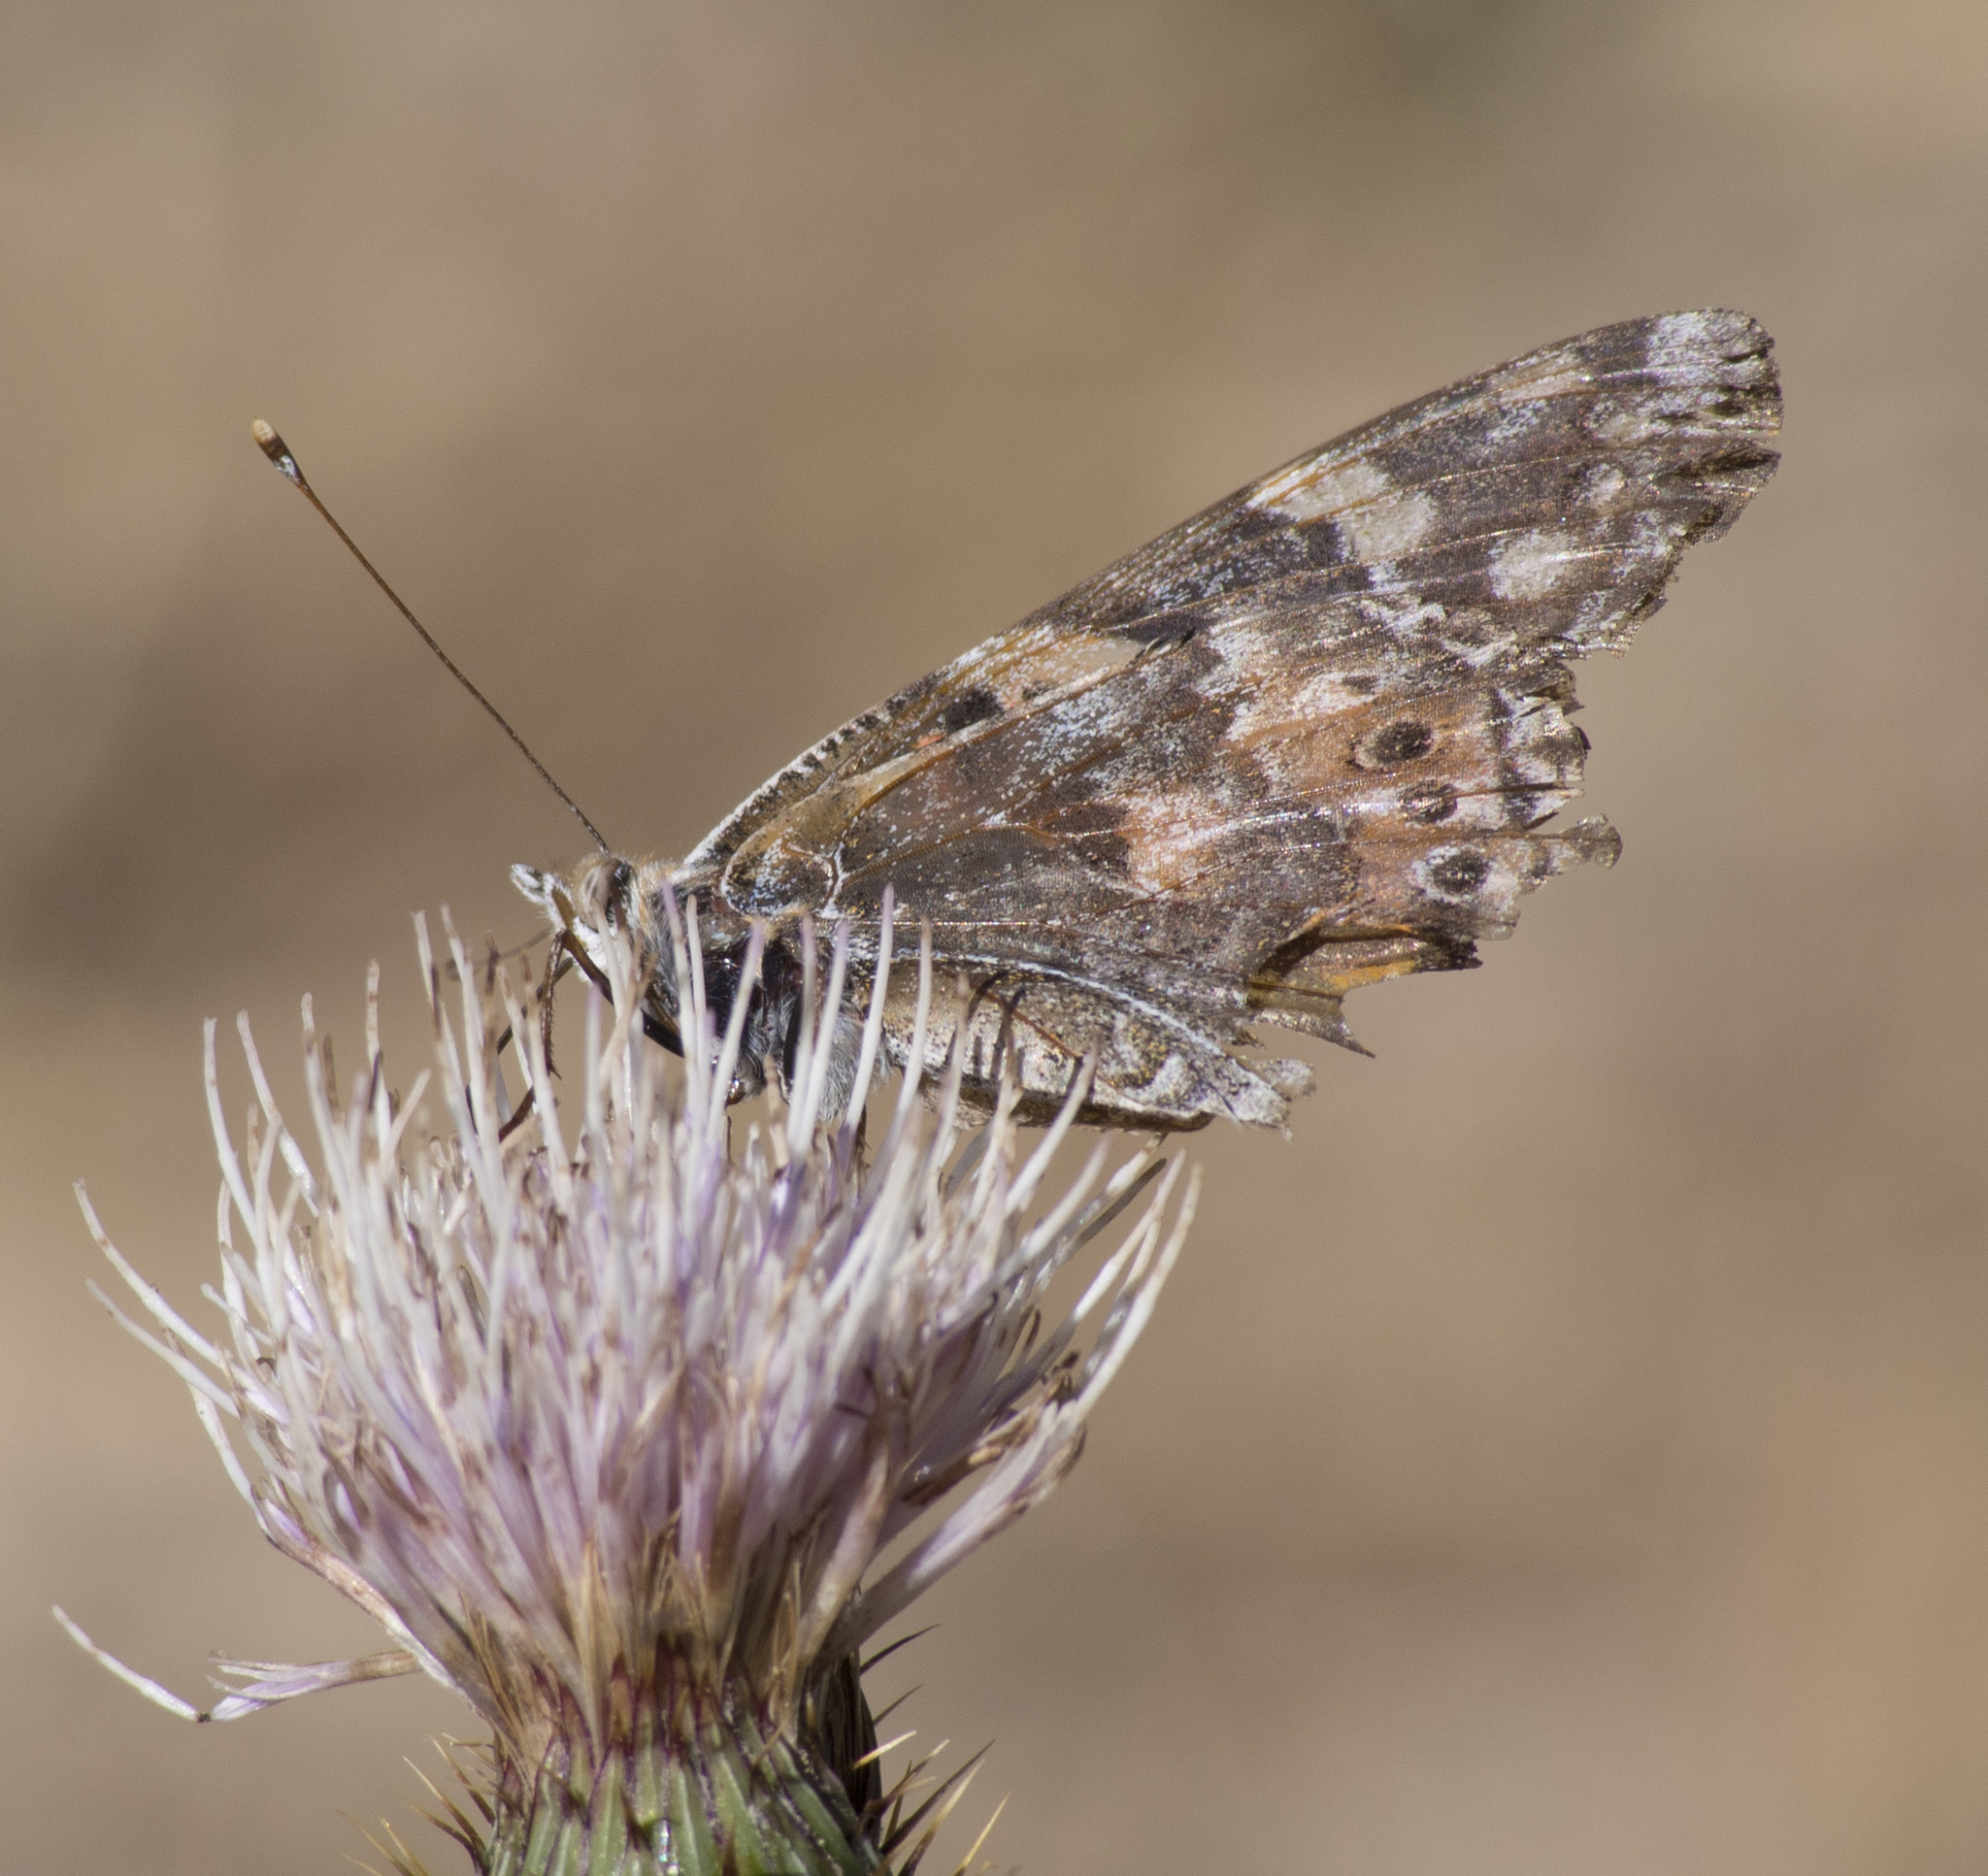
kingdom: Animalia
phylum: Arthropoda
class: Insecta
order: Lepidoptera
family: Nymphalidae
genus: Vanessa
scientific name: Vanessa cardui
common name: Painted lady
